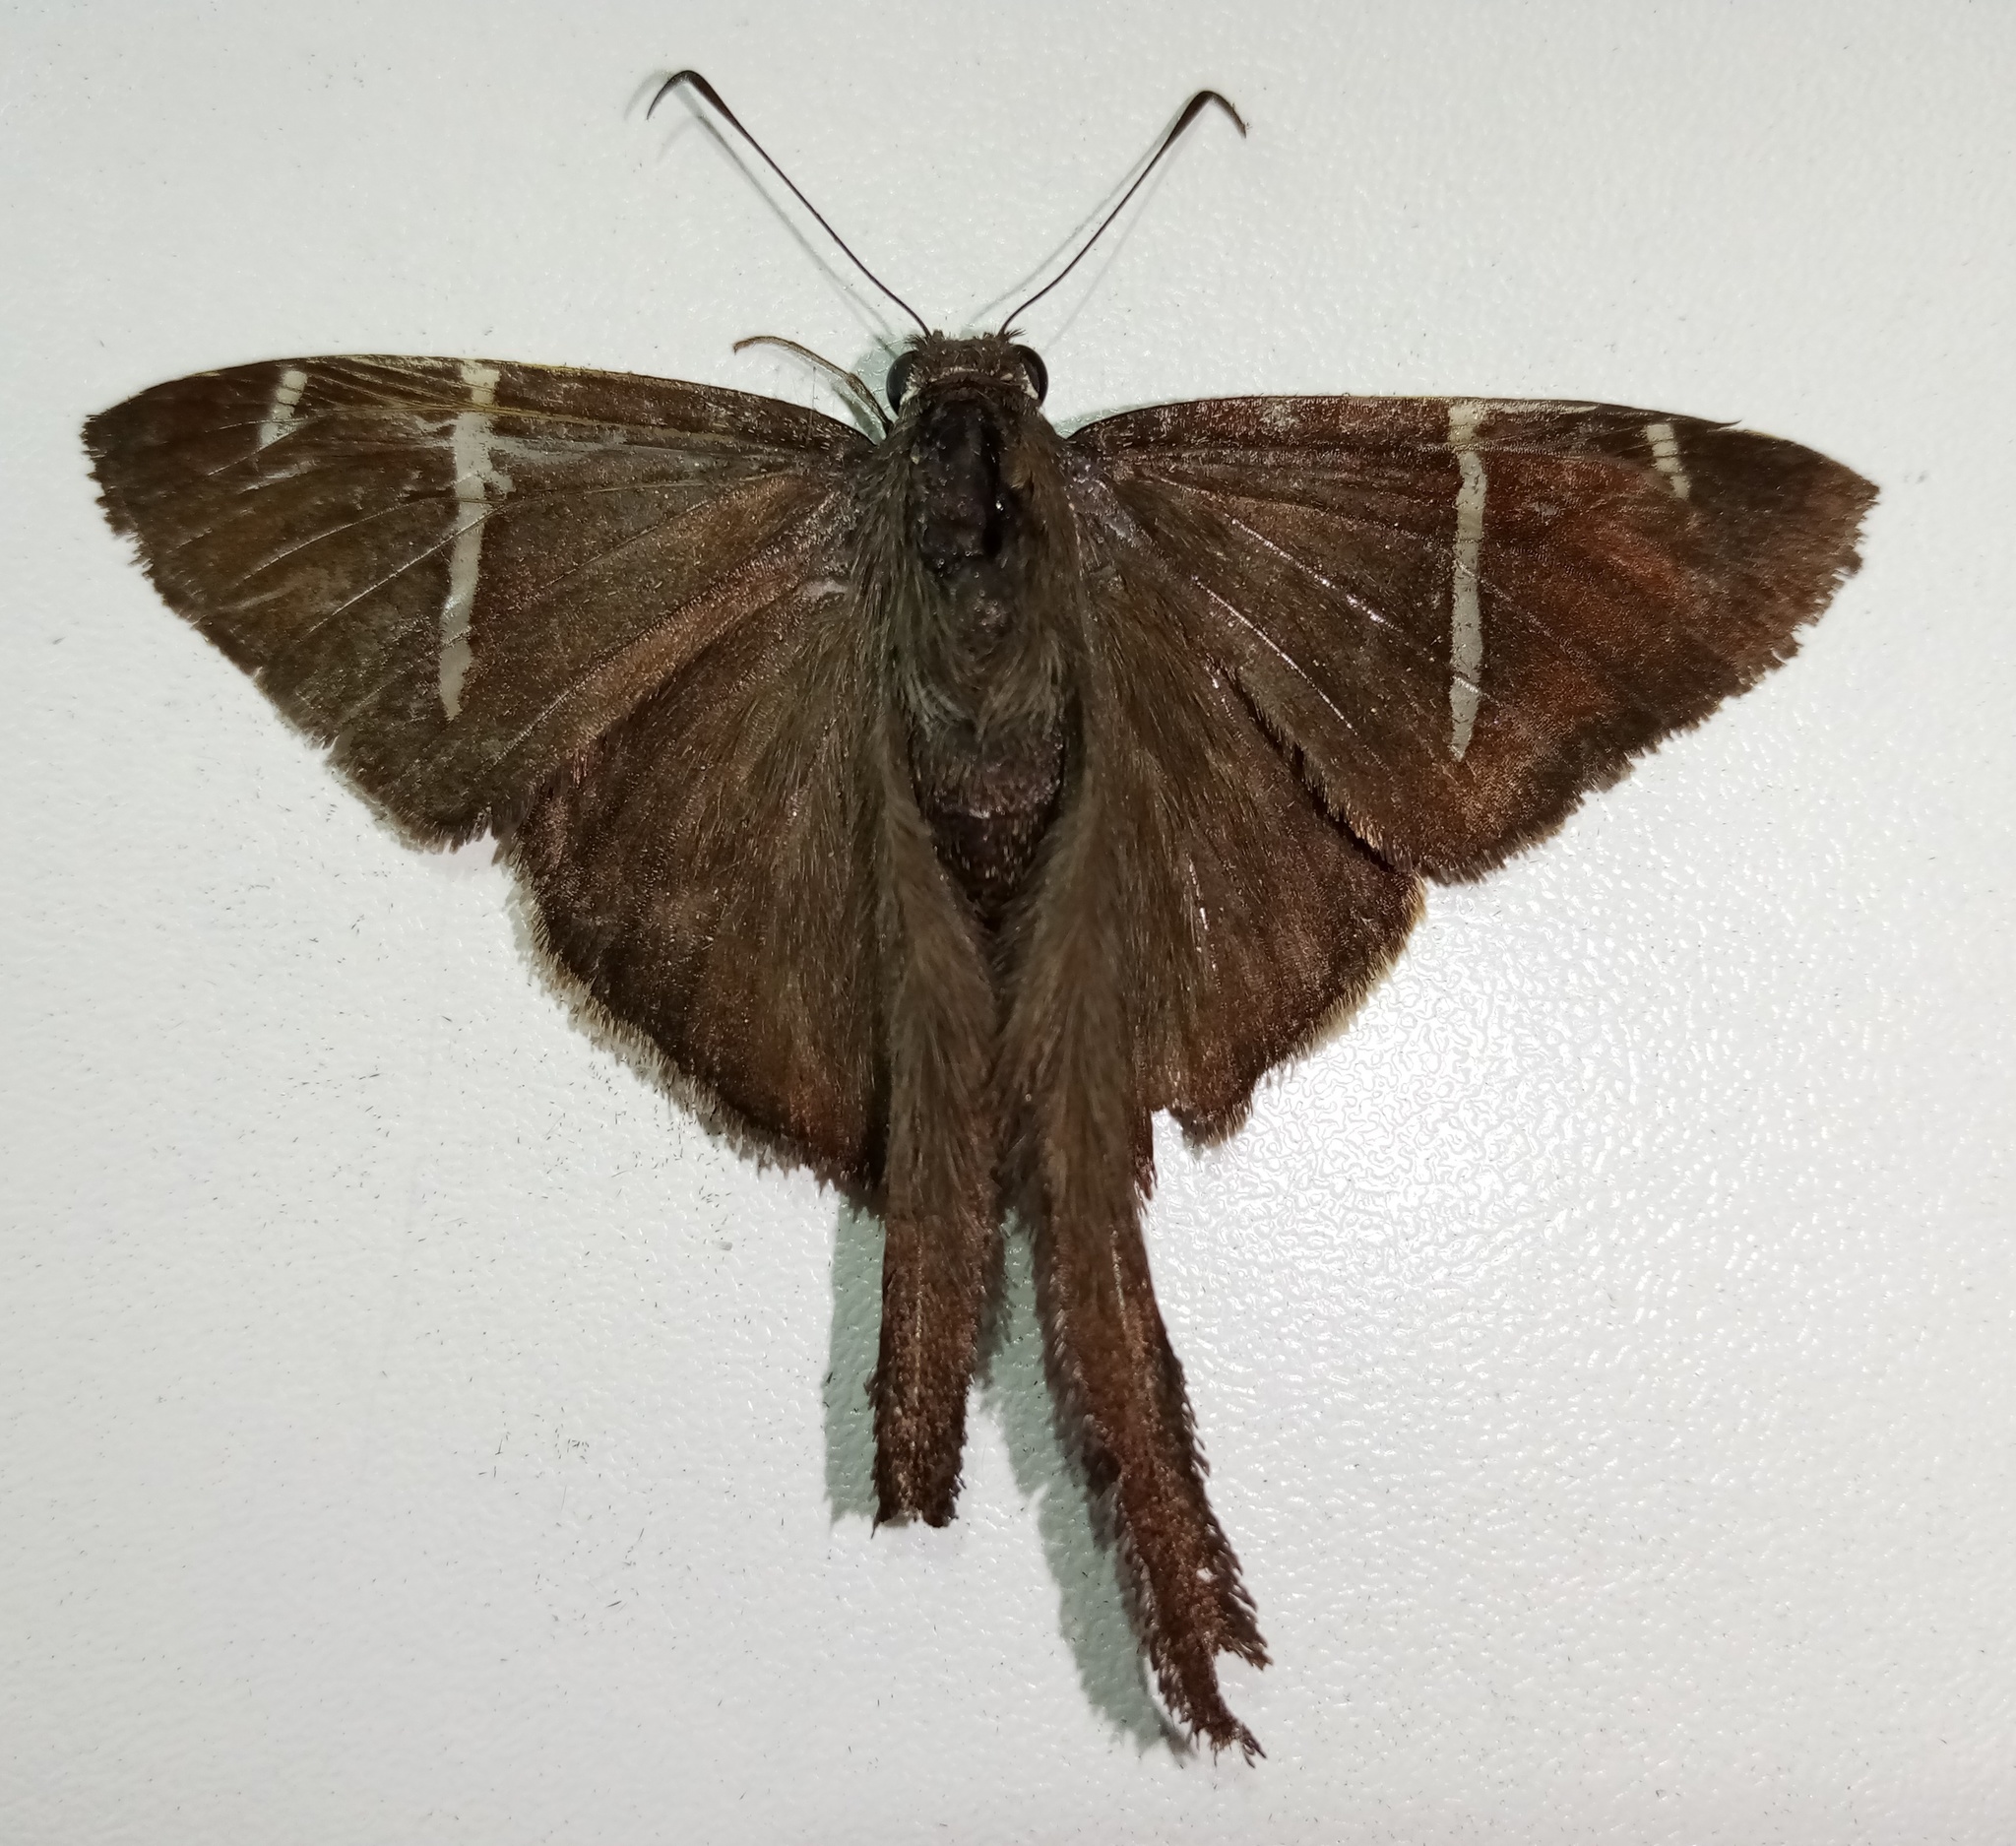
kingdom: Animalia
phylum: Arthropoda
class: Insecta
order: Lepidoptera
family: Hesperiidae
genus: Urbanus
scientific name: Urbanus tanna
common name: Tanna longtail
